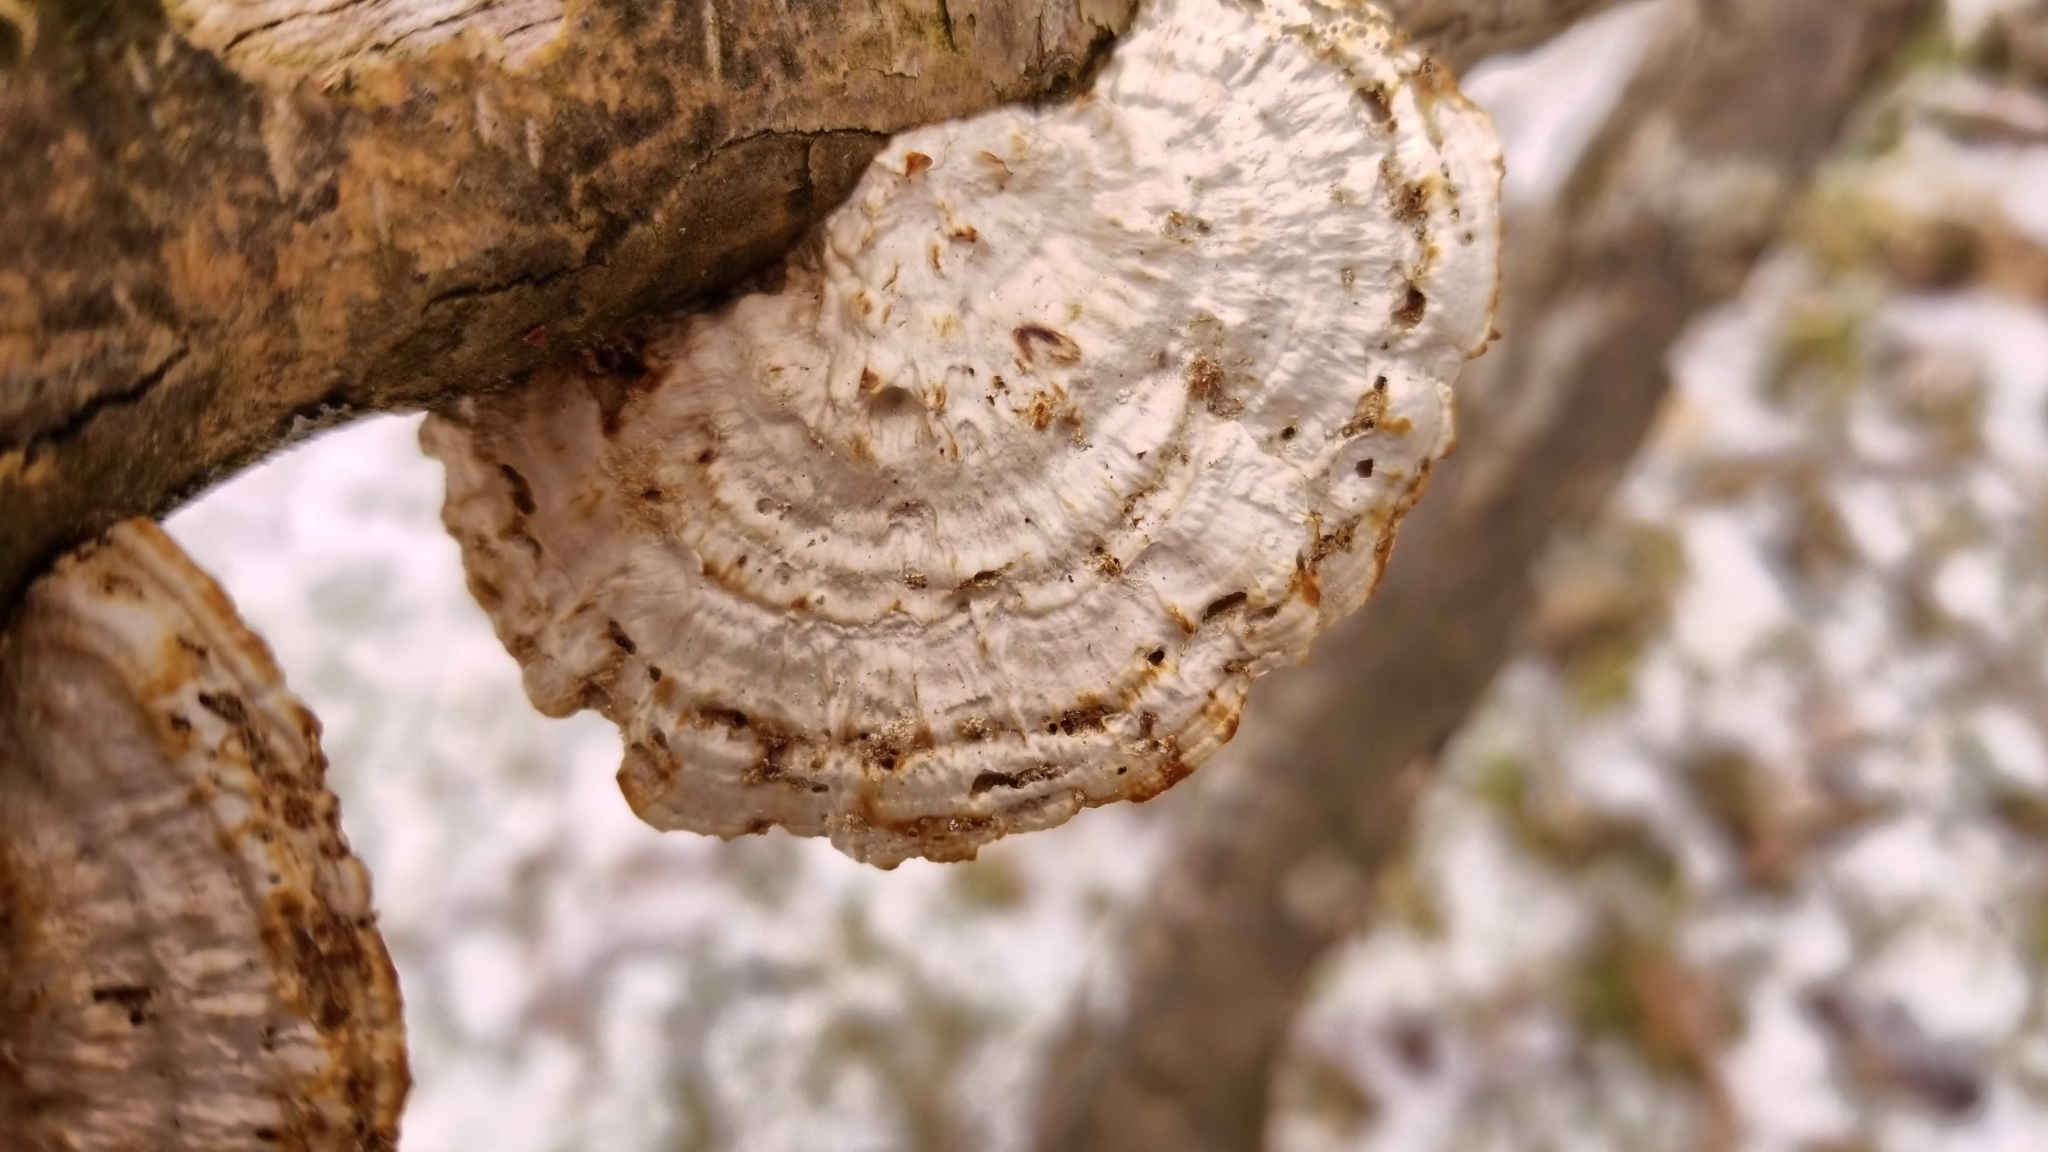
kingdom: Fungi
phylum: Basidiomycota
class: Agaricomycetes
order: Polyporales
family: Polyporaceae
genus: Daedaleopsis
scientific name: Daedaleopsis confragosa
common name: Blushing bracket
